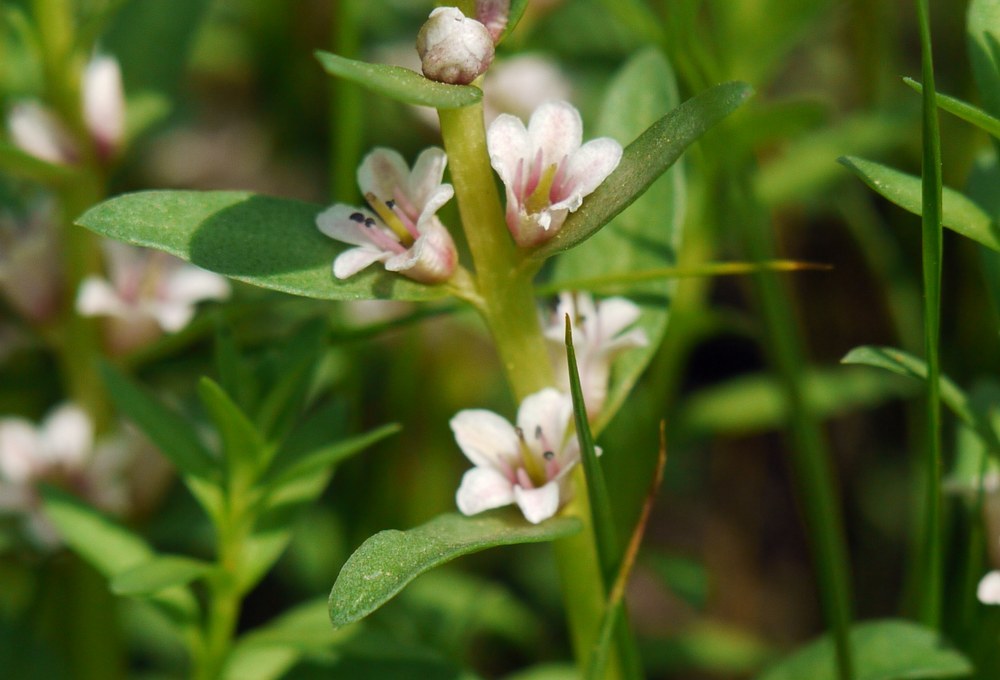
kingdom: Plantae
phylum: Tracheophyta
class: Magnoliopsida
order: Ericales
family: Primulaceae
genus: Lysimachia
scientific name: Lysimachia maritima
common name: Sea milkwort
